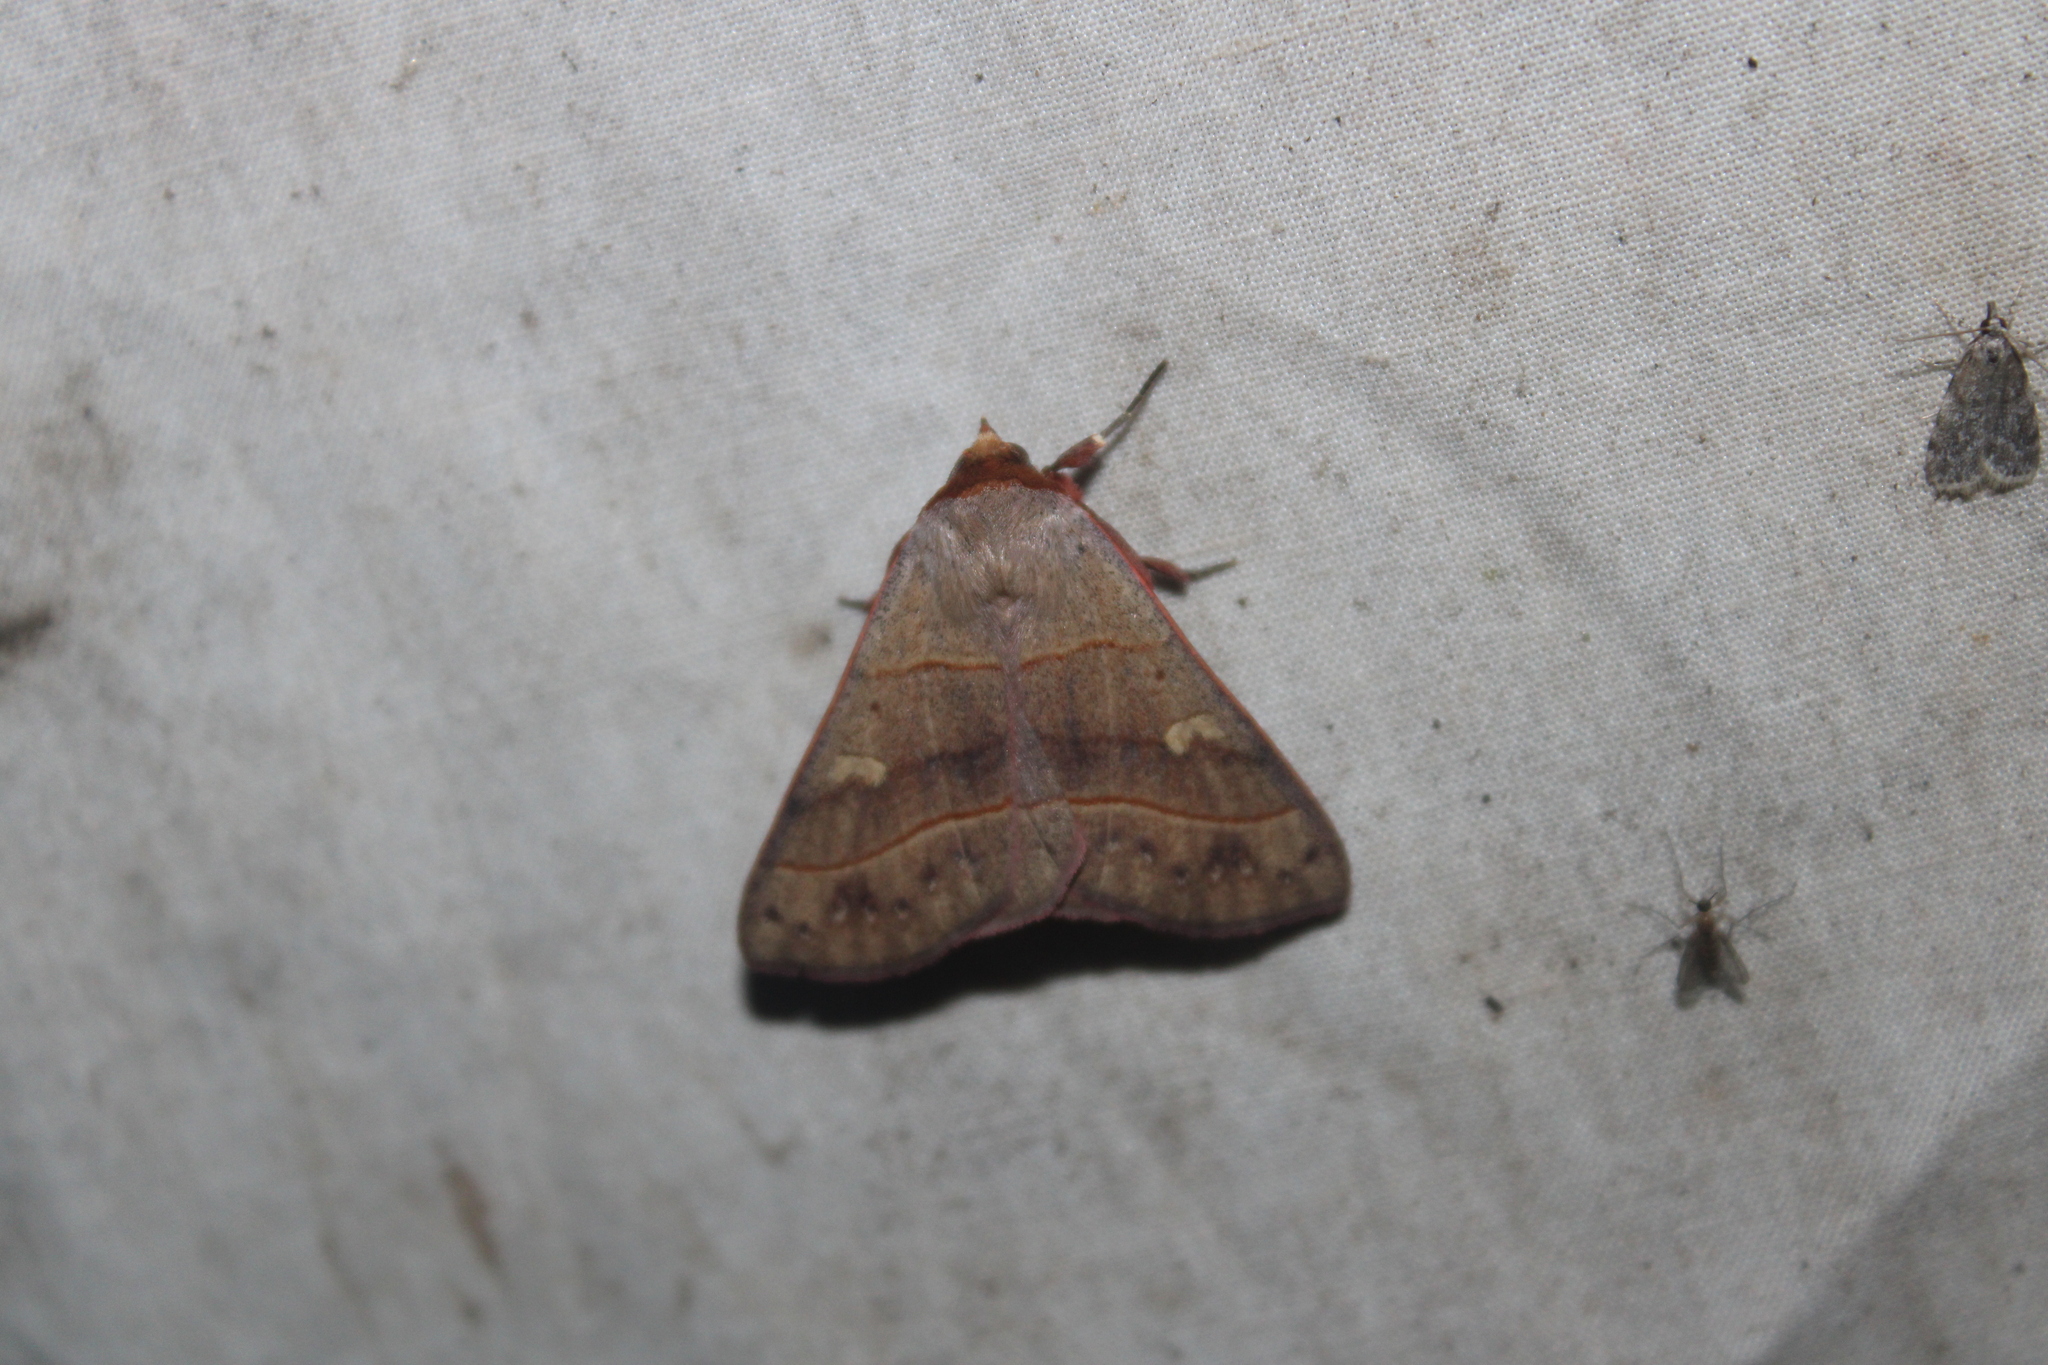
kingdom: Animalia
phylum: Arthropoda
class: Insecta
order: Lepidoptera
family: Erebidae
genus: Panopoda
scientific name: Panopoda rufimargo
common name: Red-lined panopoda moth
